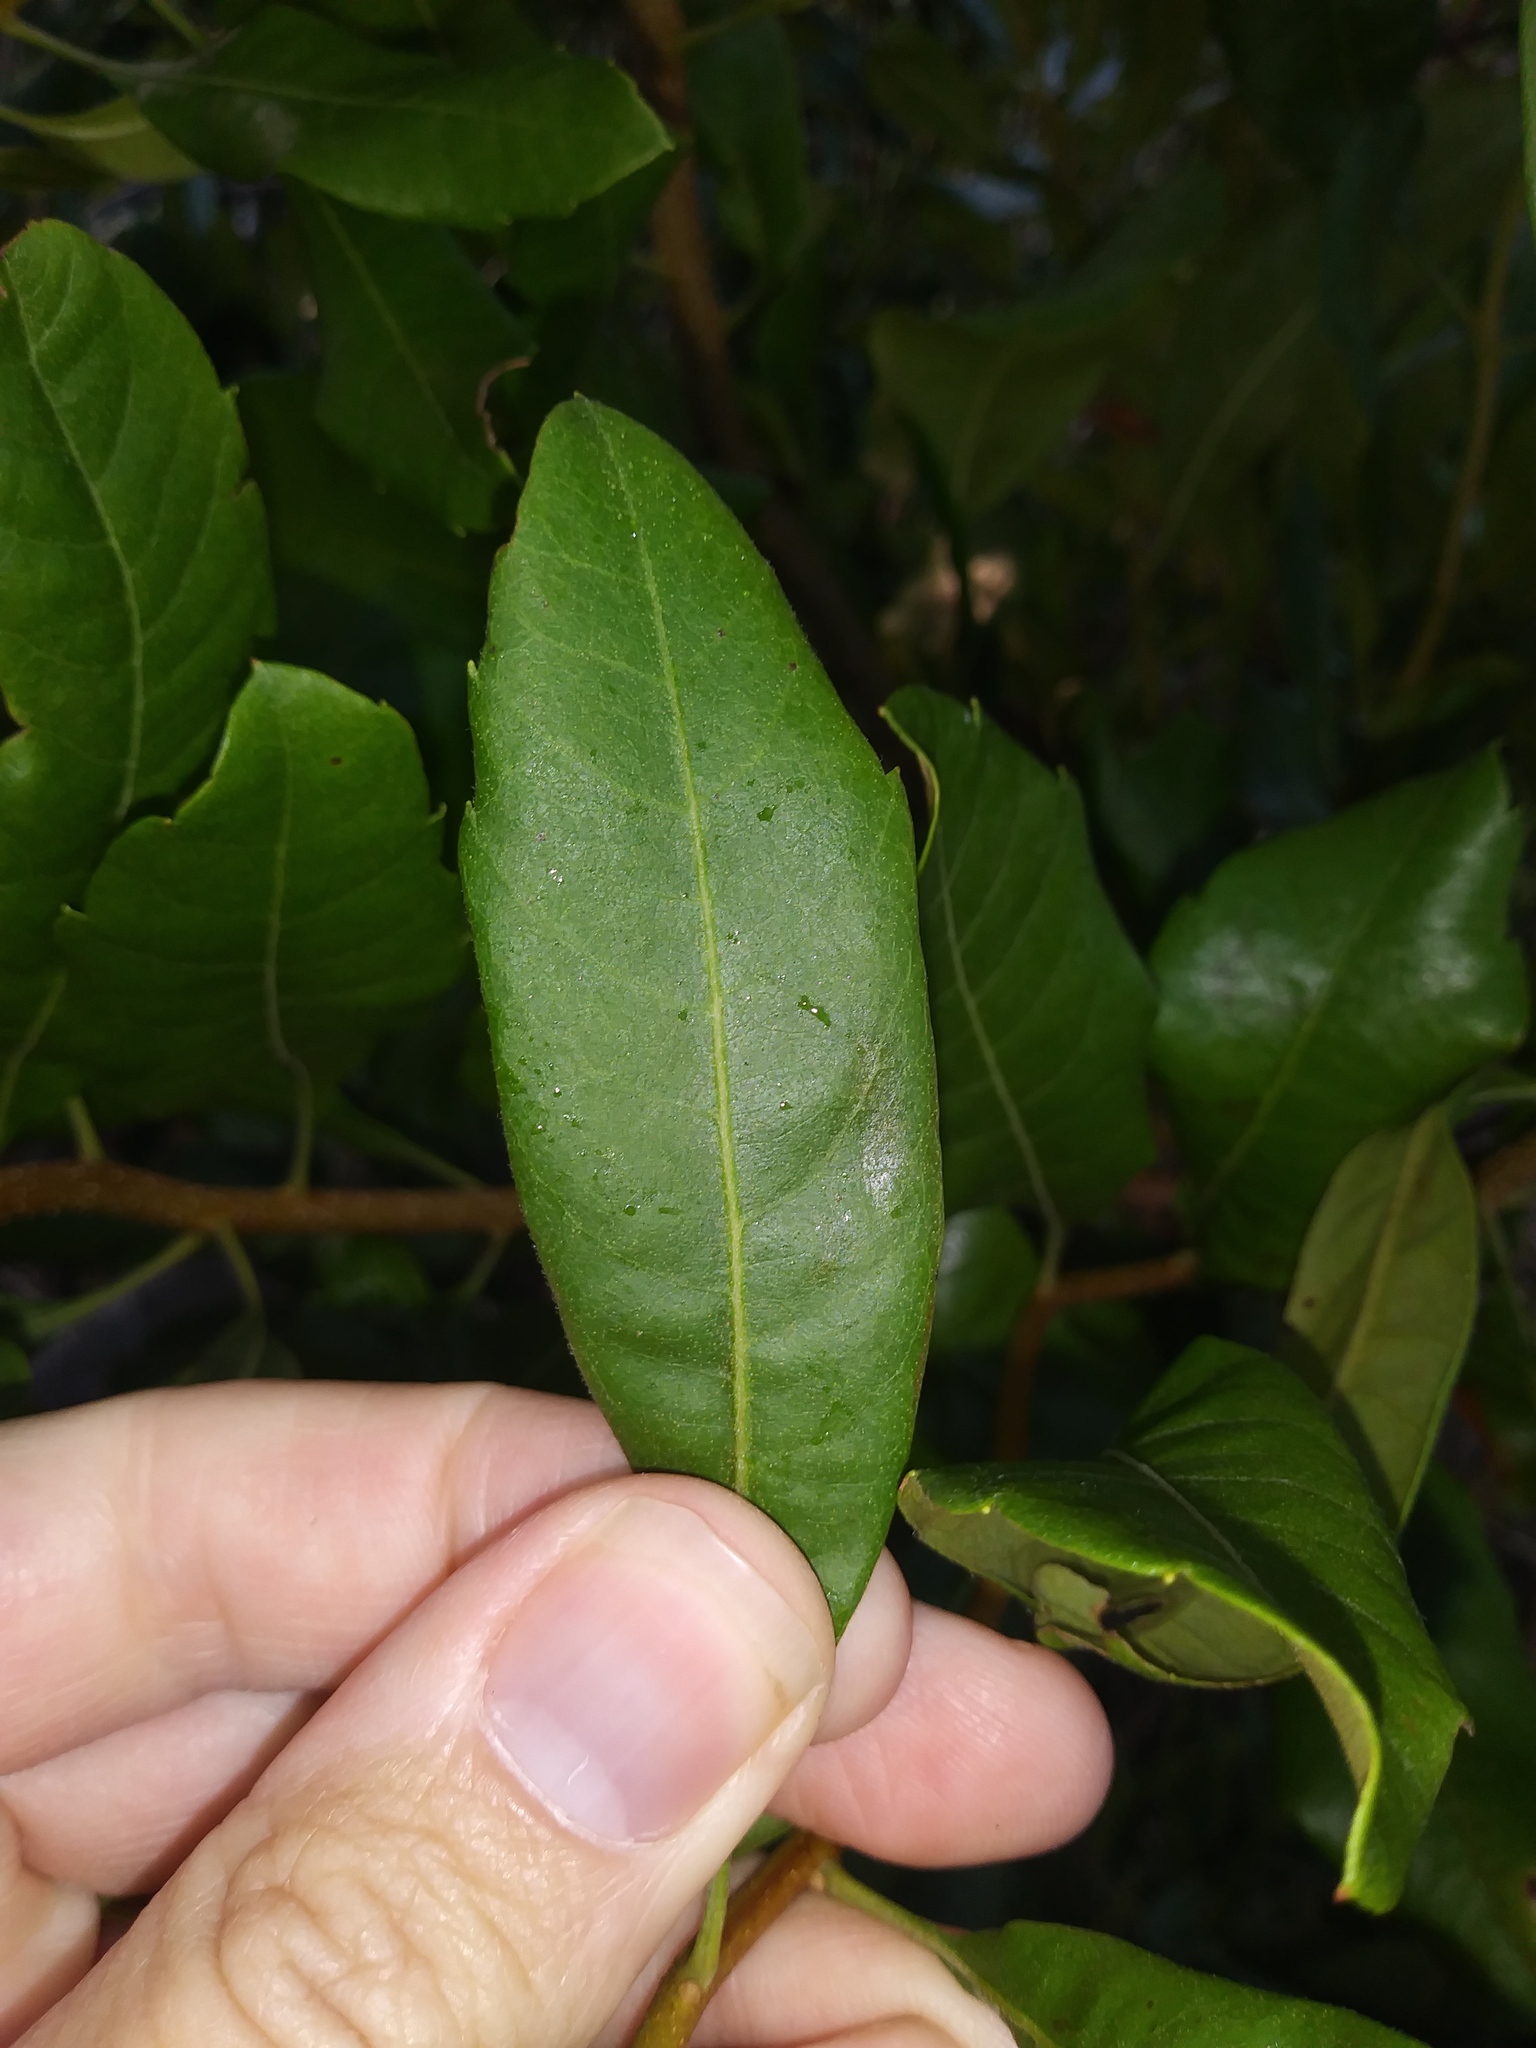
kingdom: Plantae
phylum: Tracheophyta
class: Magnoliopsida
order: Fagales
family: Myricaceae
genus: Morella
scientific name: Morella cerifera
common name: Wax myrtle
